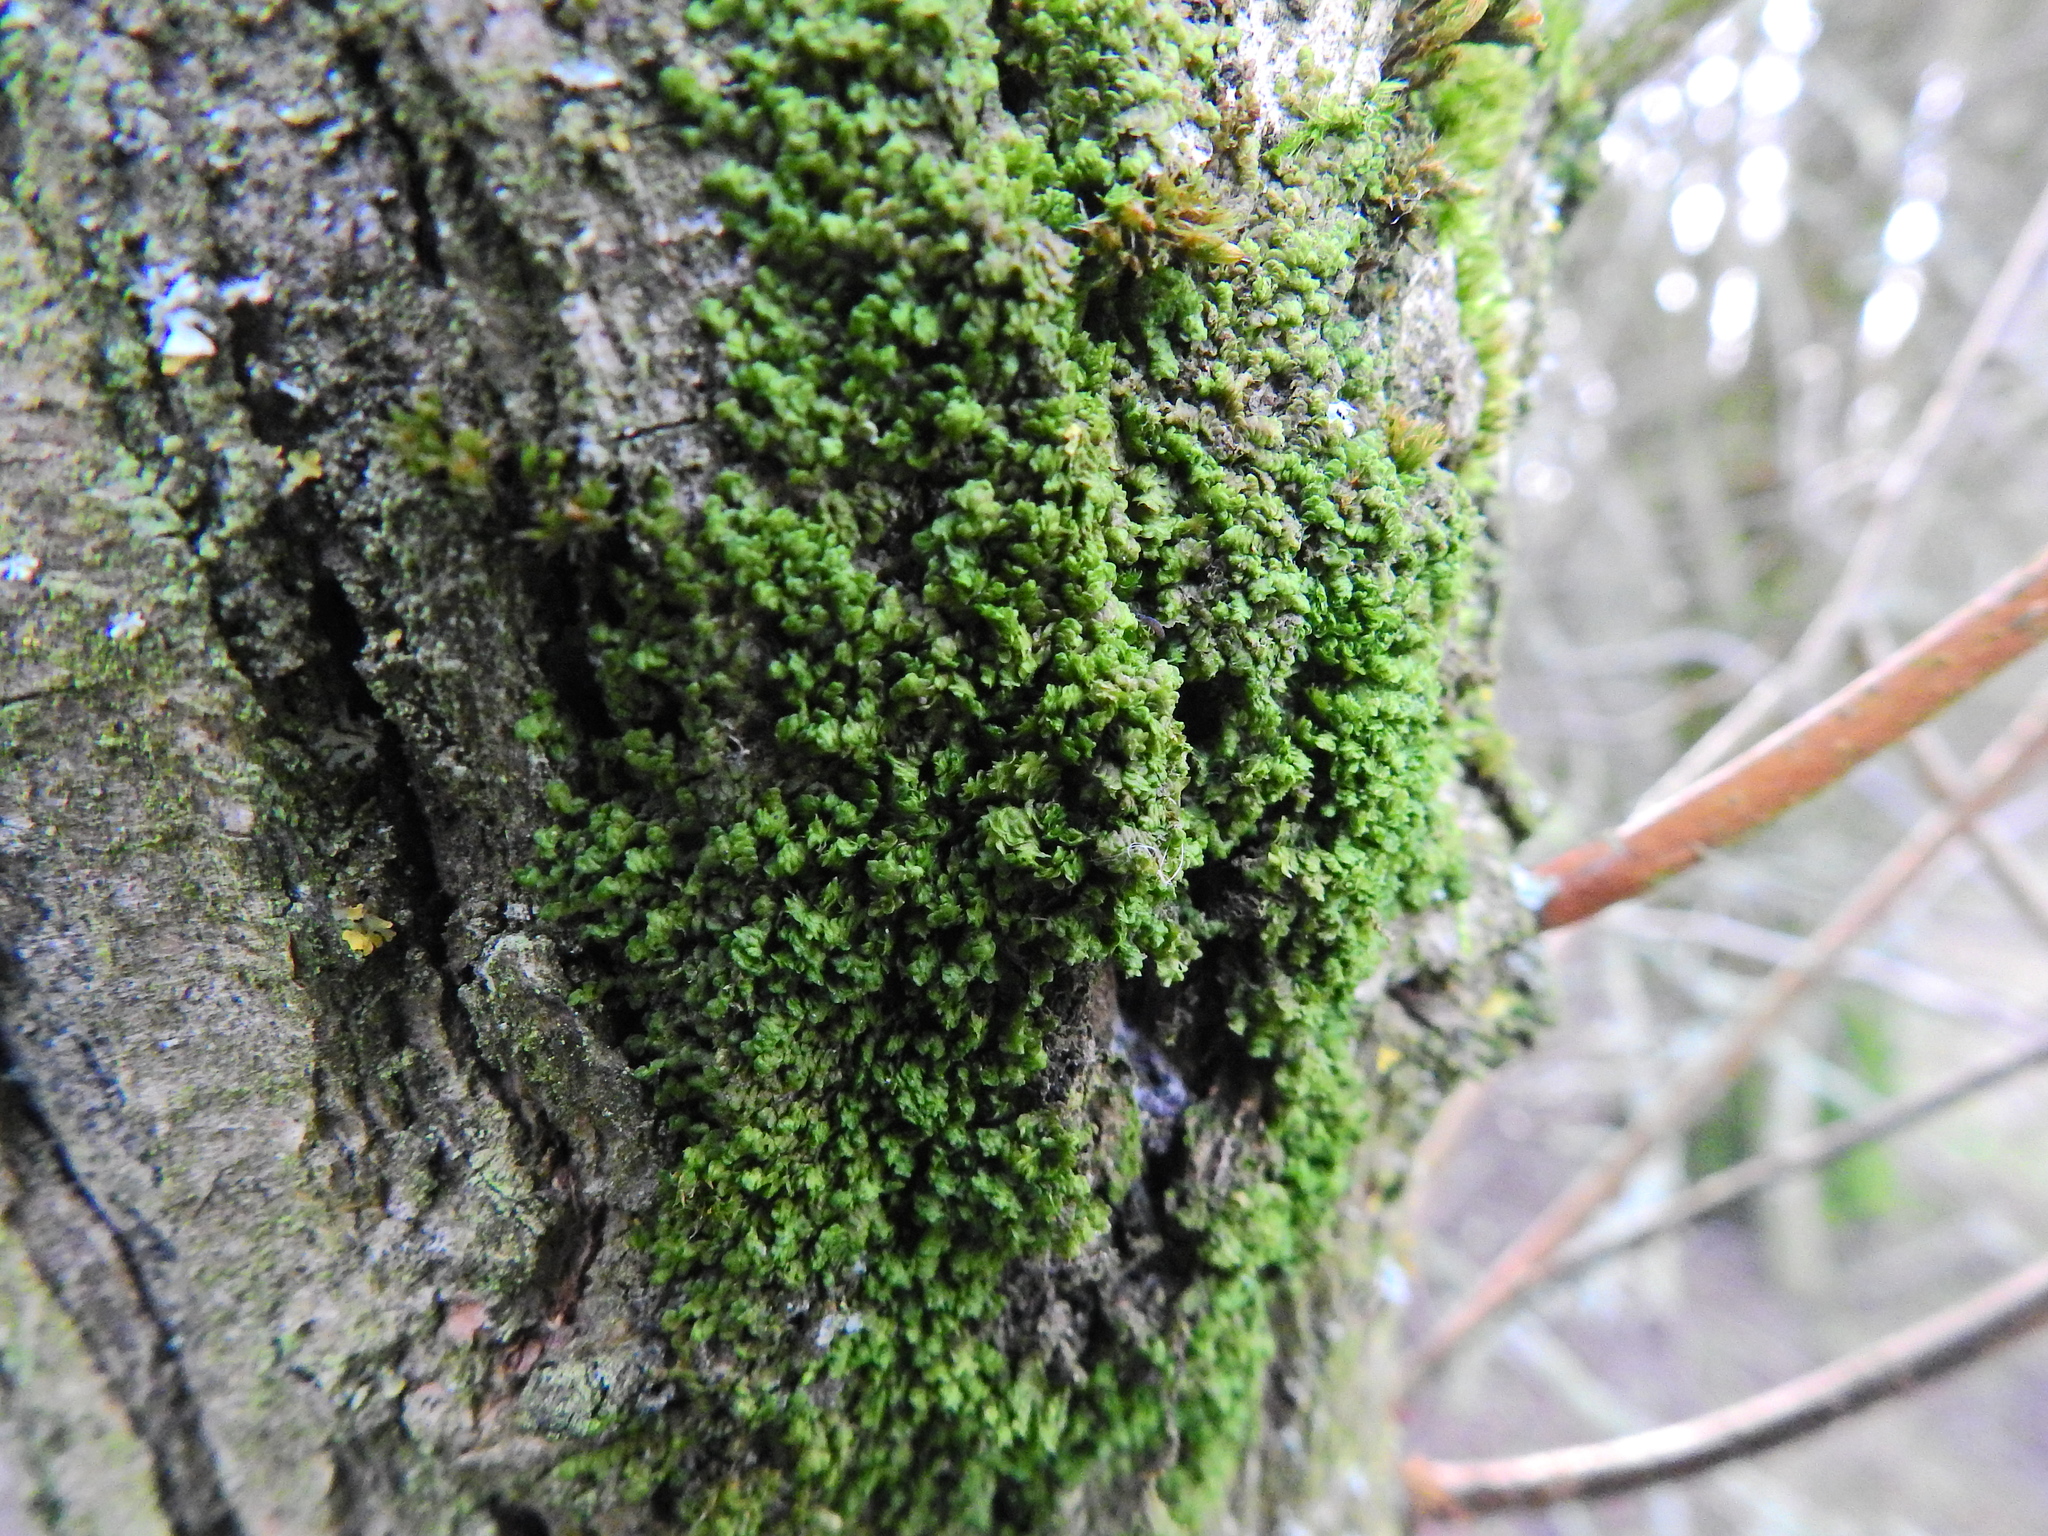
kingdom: Plantae
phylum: Marchantiophyta
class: Jungermanniopsida
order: Porellales
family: Frullaniaceae
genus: Frullania
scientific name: Frullania dilatata
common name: Dilated scalewort
